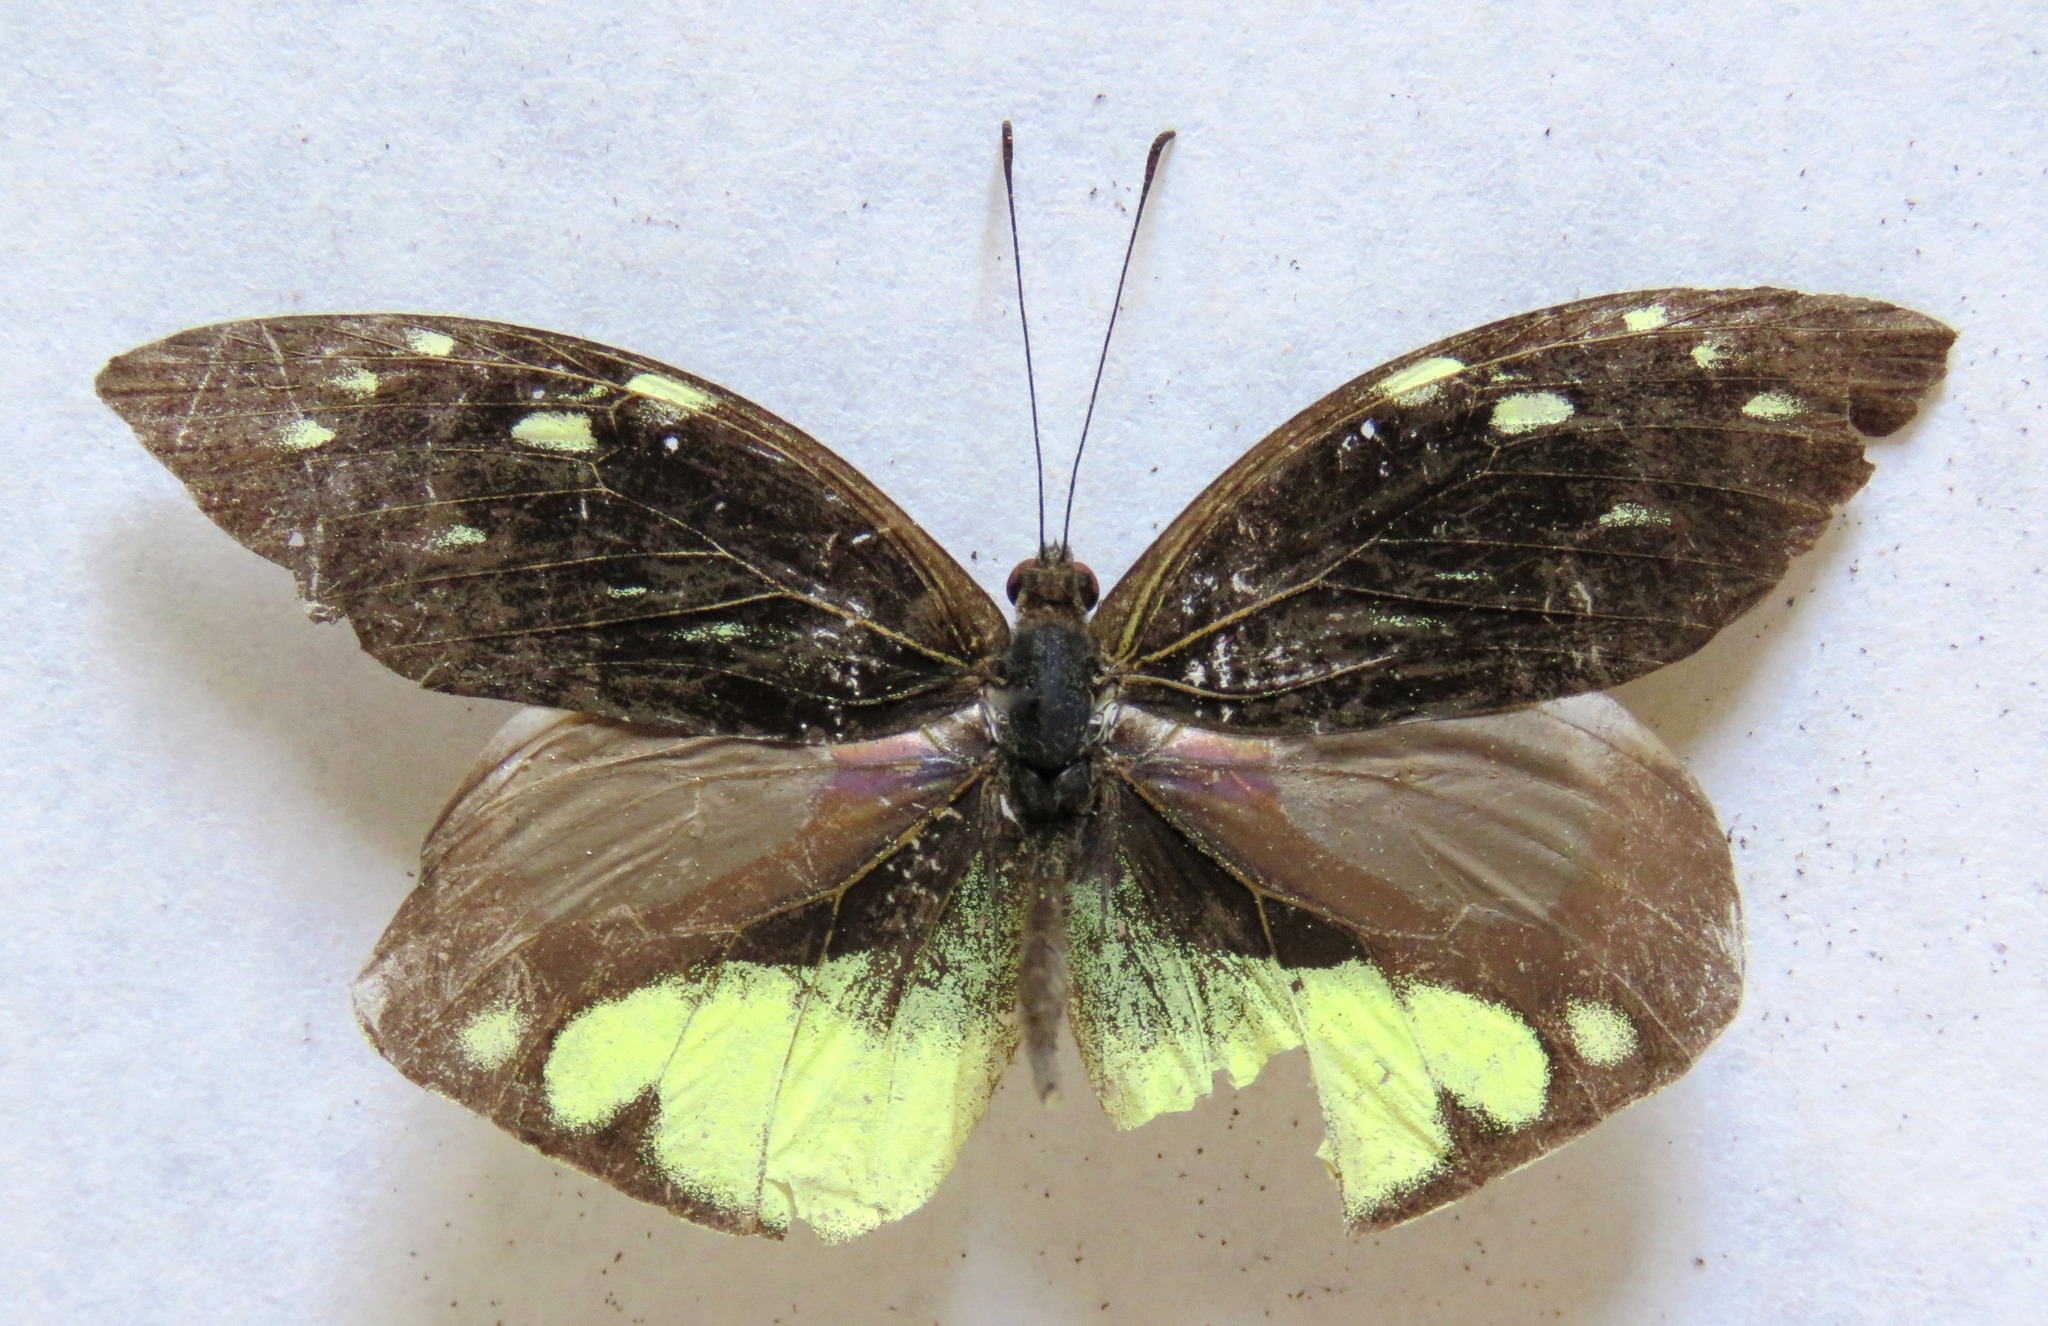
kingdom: Animalia
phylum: Arthropoda
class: Insecta
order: Lepidoptera
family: Pieridae
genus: Lieinix
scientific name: Lieinix nemesis
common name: Frosted mimic-white
